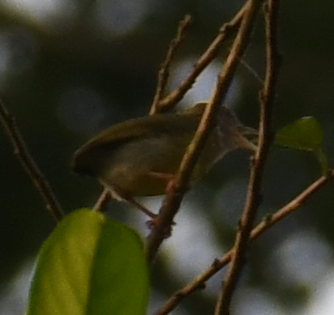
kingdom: Animalia
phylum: Chordata
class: Aves
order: Passeriformes
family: Macrosphenidae
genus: Sylvietta
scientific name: Sylvietta virens
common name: Green crombec
